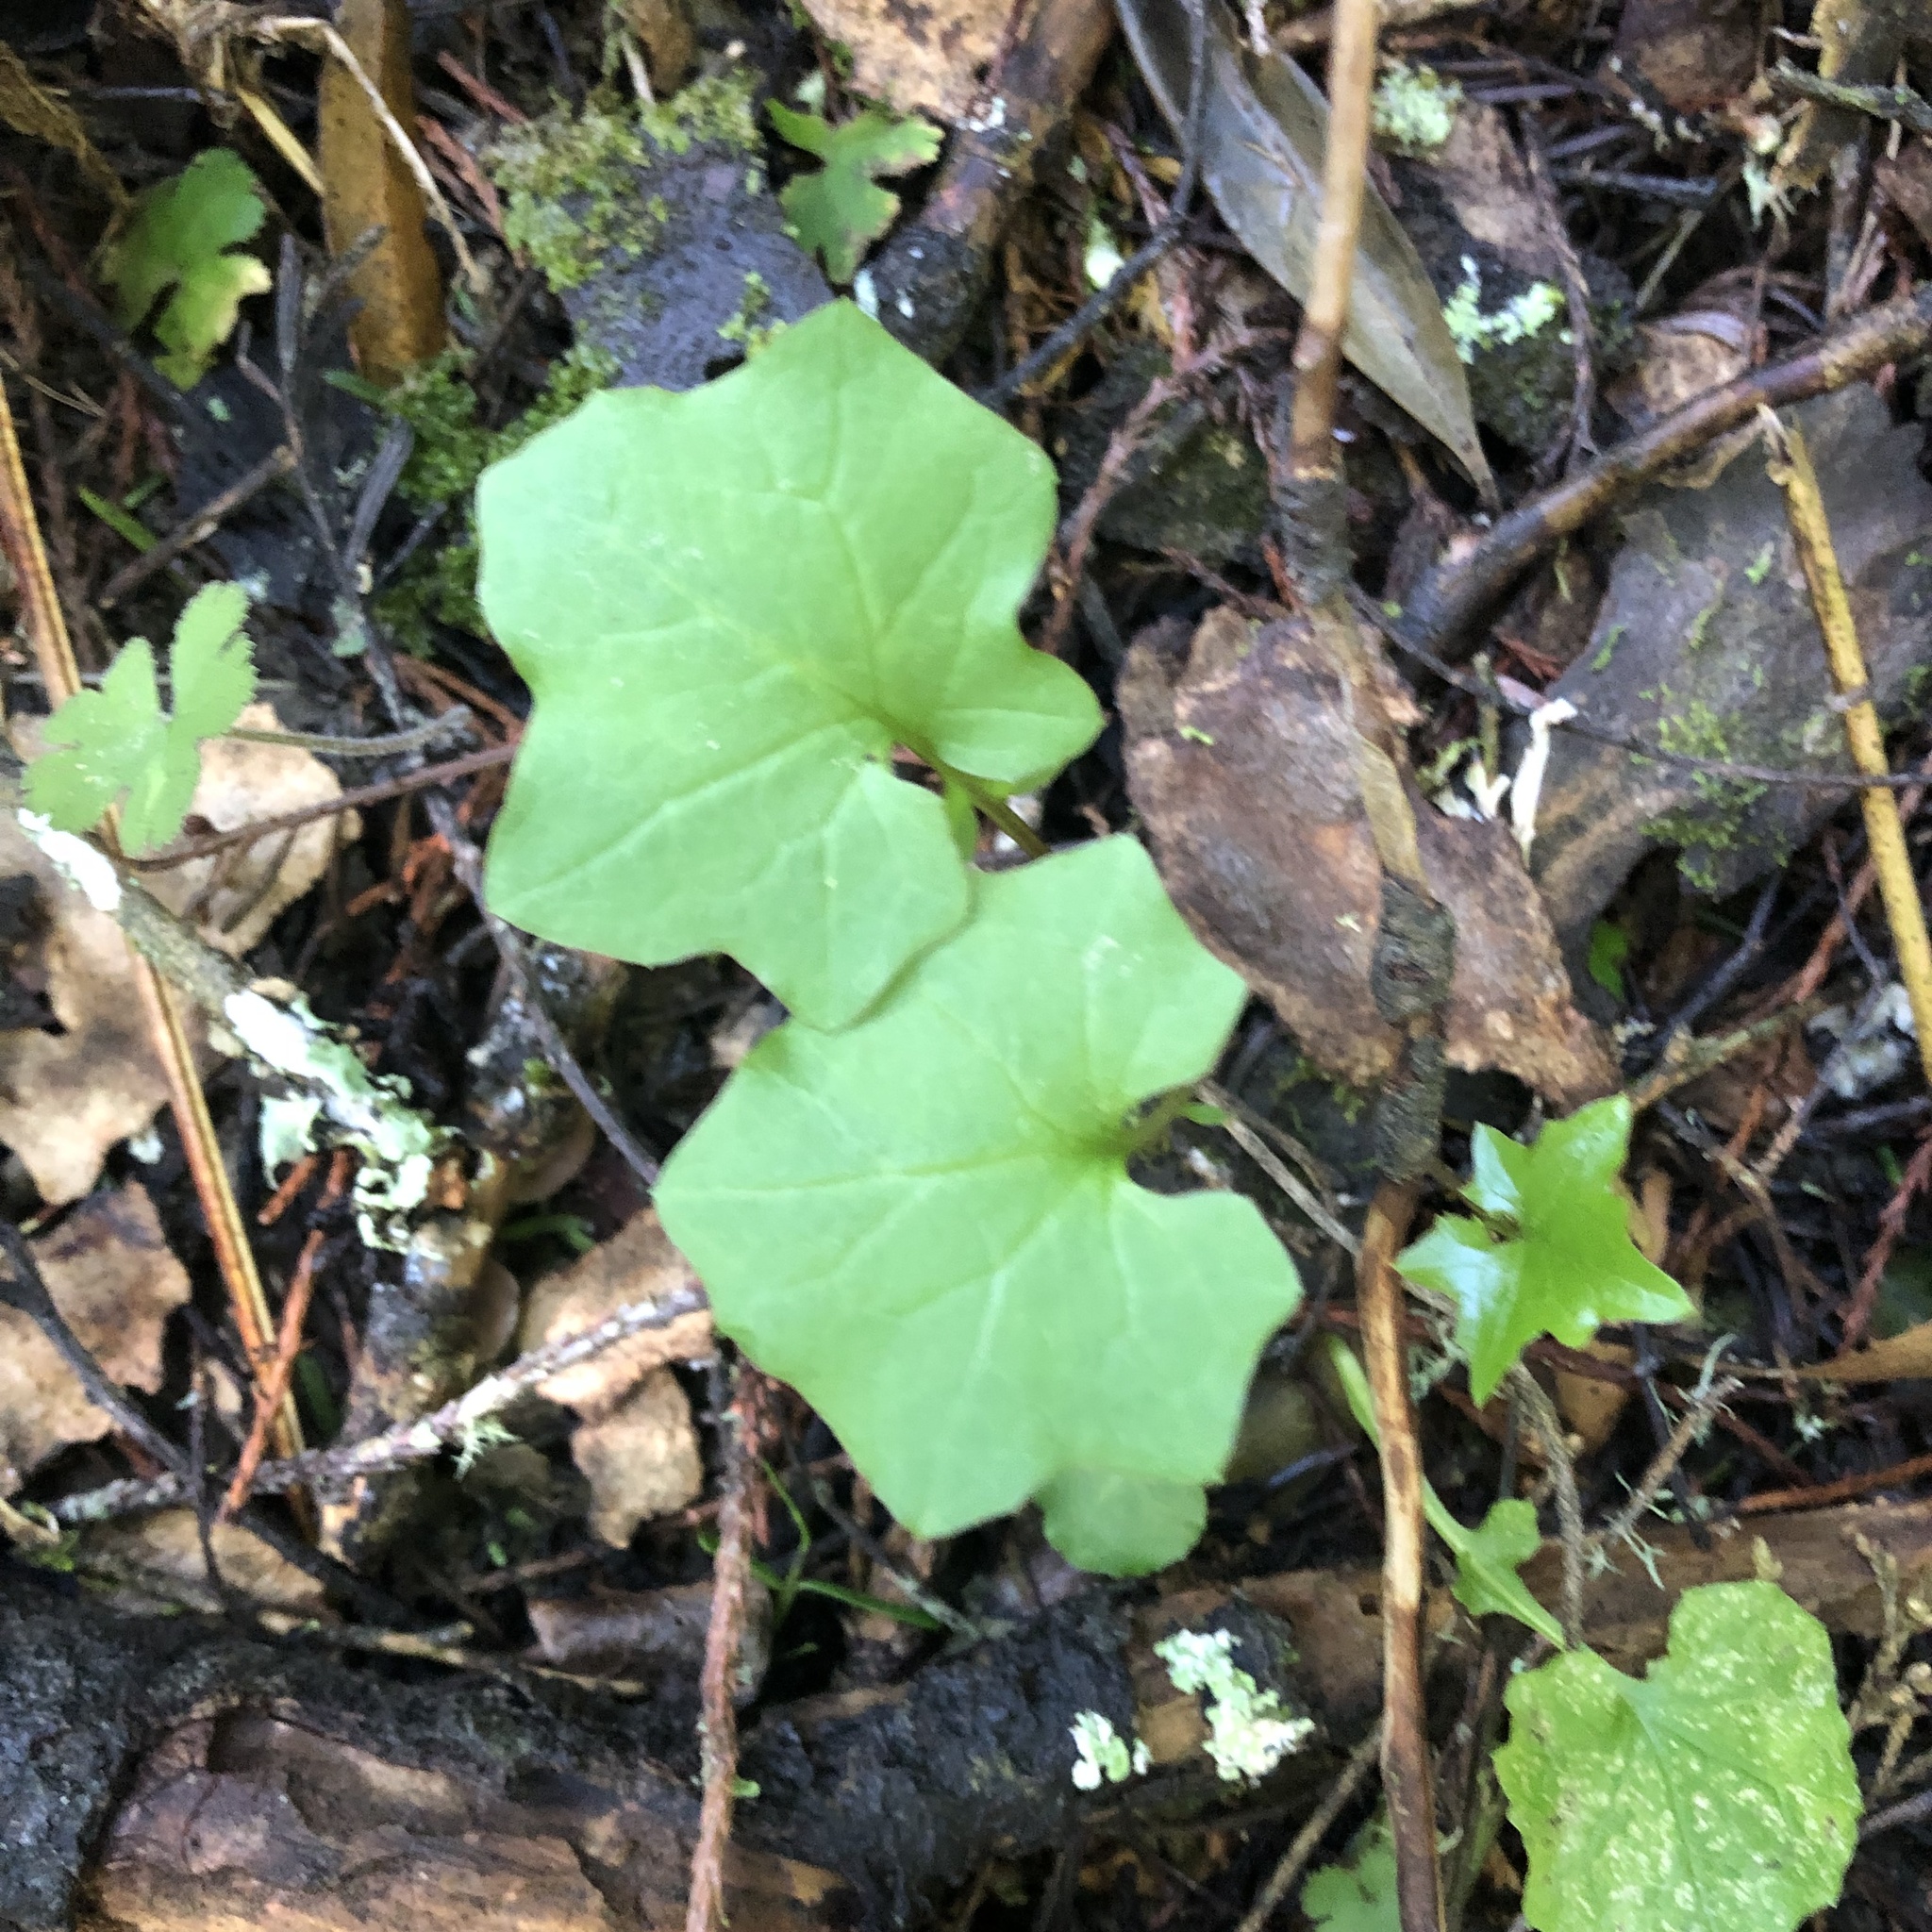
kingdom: Plantae
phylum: Tracheophyta
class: Magnoliopsida
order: Asterales
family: Asteraceae
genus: Mycelis
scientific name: Mycelis muralis
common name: Wall lettuce
